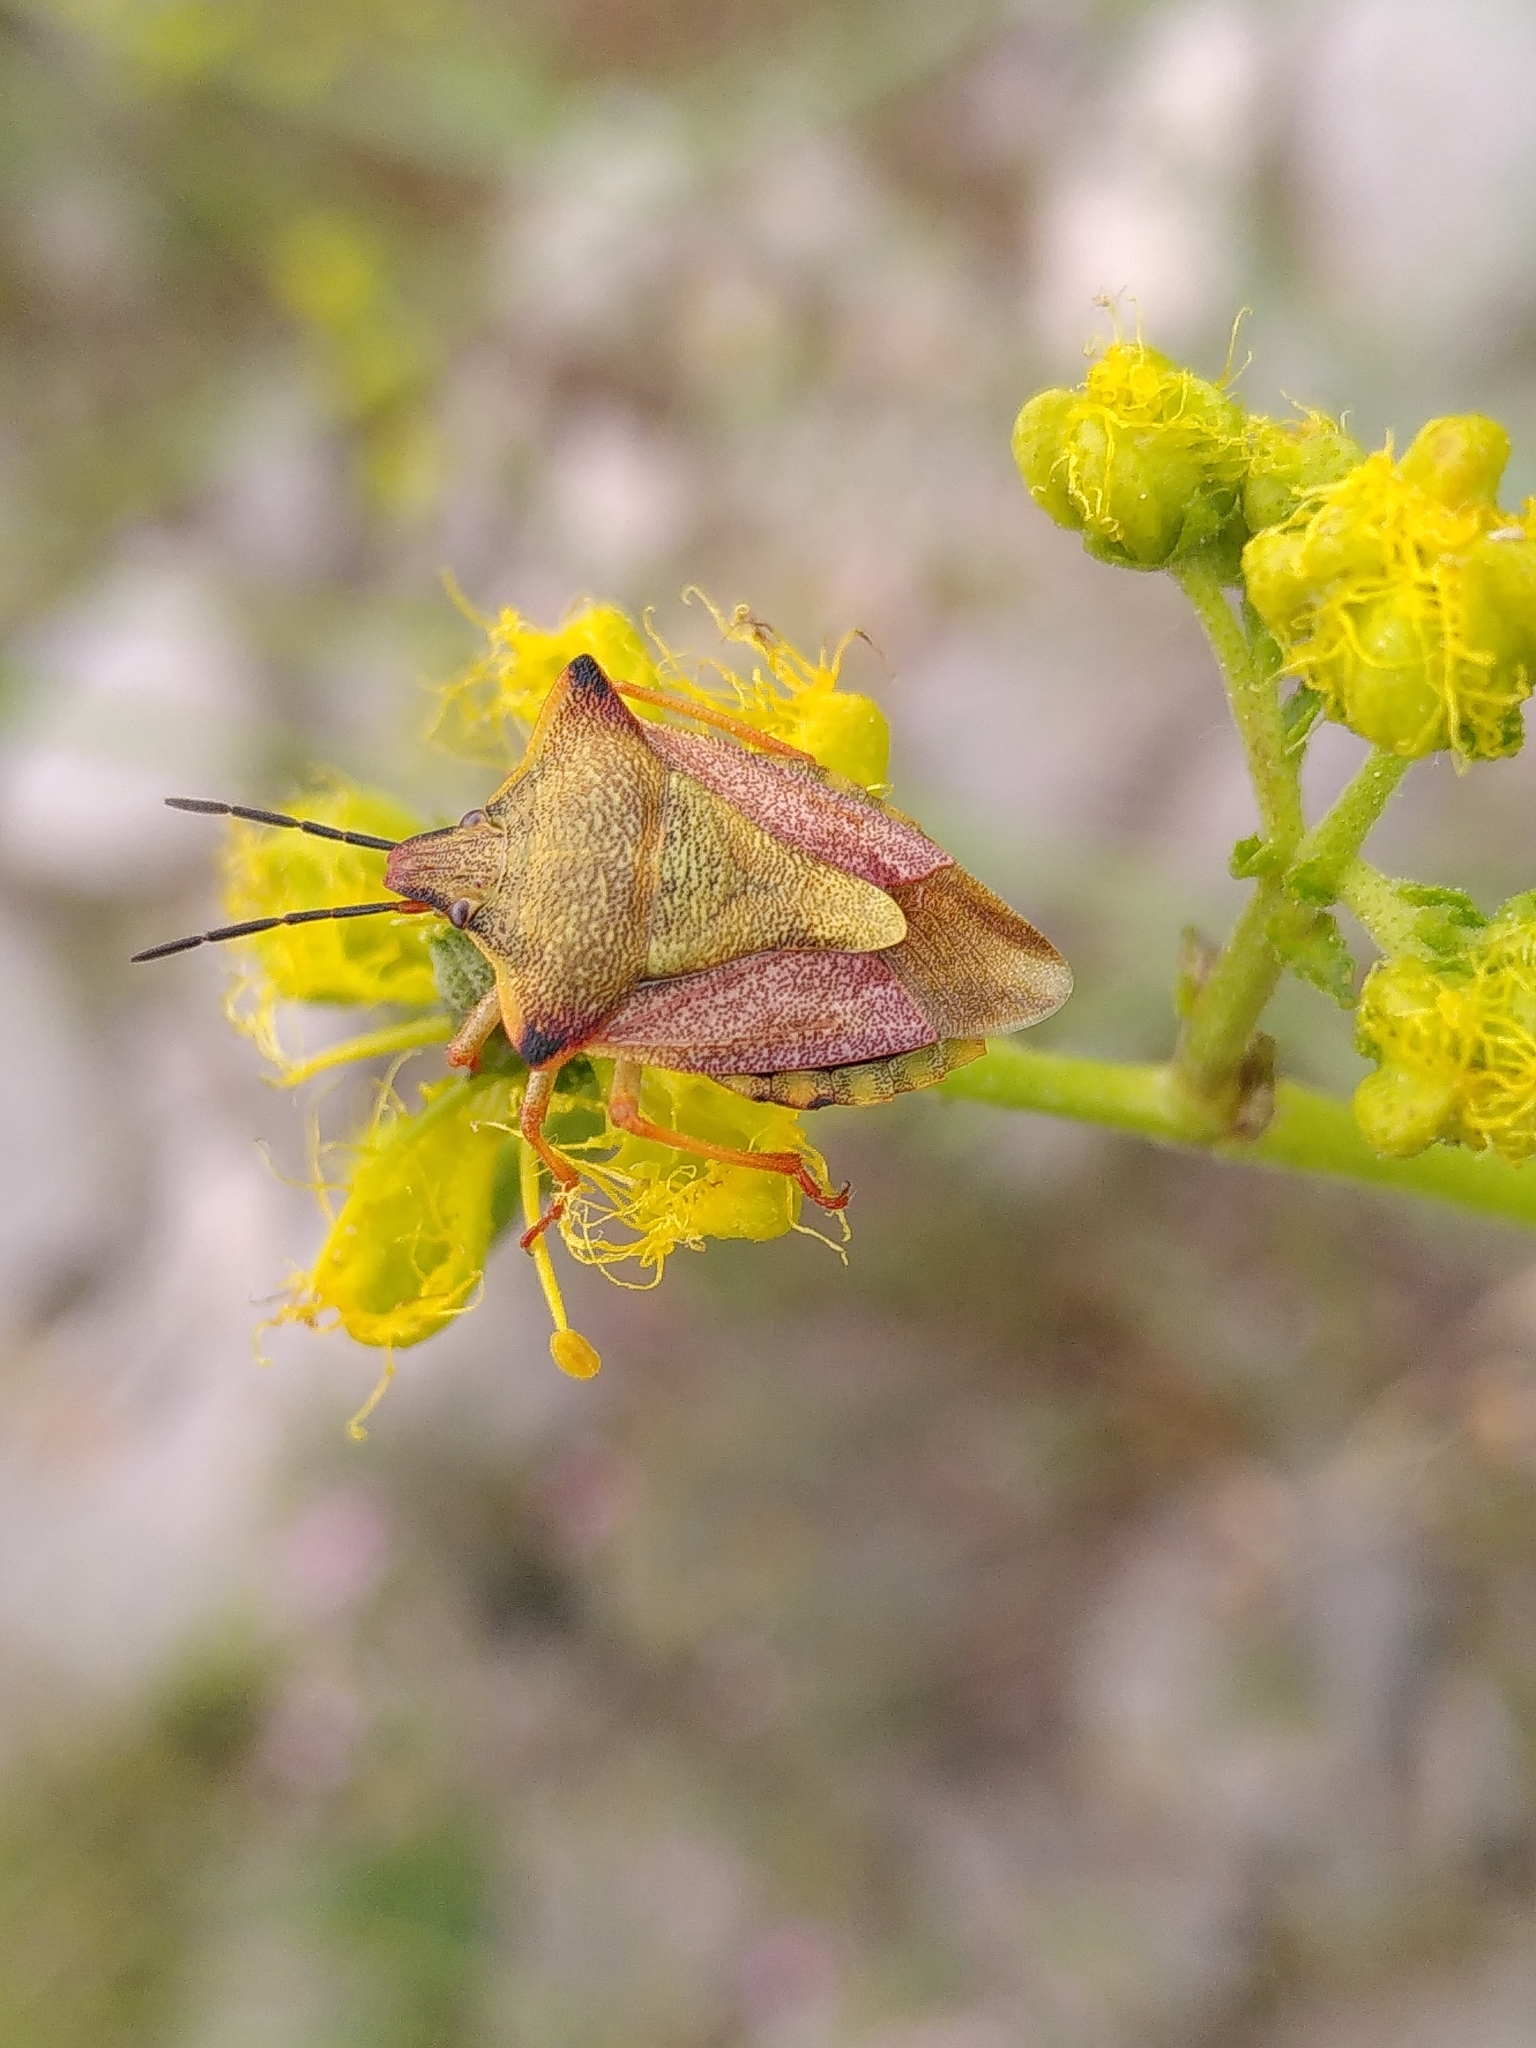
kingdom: Animalia
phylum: Arthropoda
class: Insecta
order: Hemiptera
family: Pentatomidae
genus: Carpocoris
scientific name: Carpocoris mediterraneus
